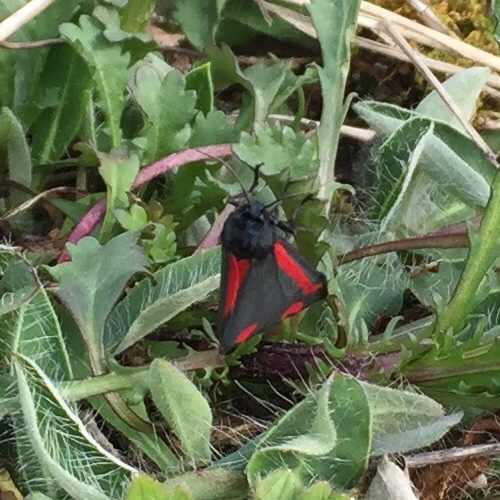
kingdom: Animalia
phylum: Arthropoda
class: Insecta
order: Lepidoptera
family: Erebidae
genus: Tyria
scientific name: Tyria jacobaeae
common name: Cinnabar
